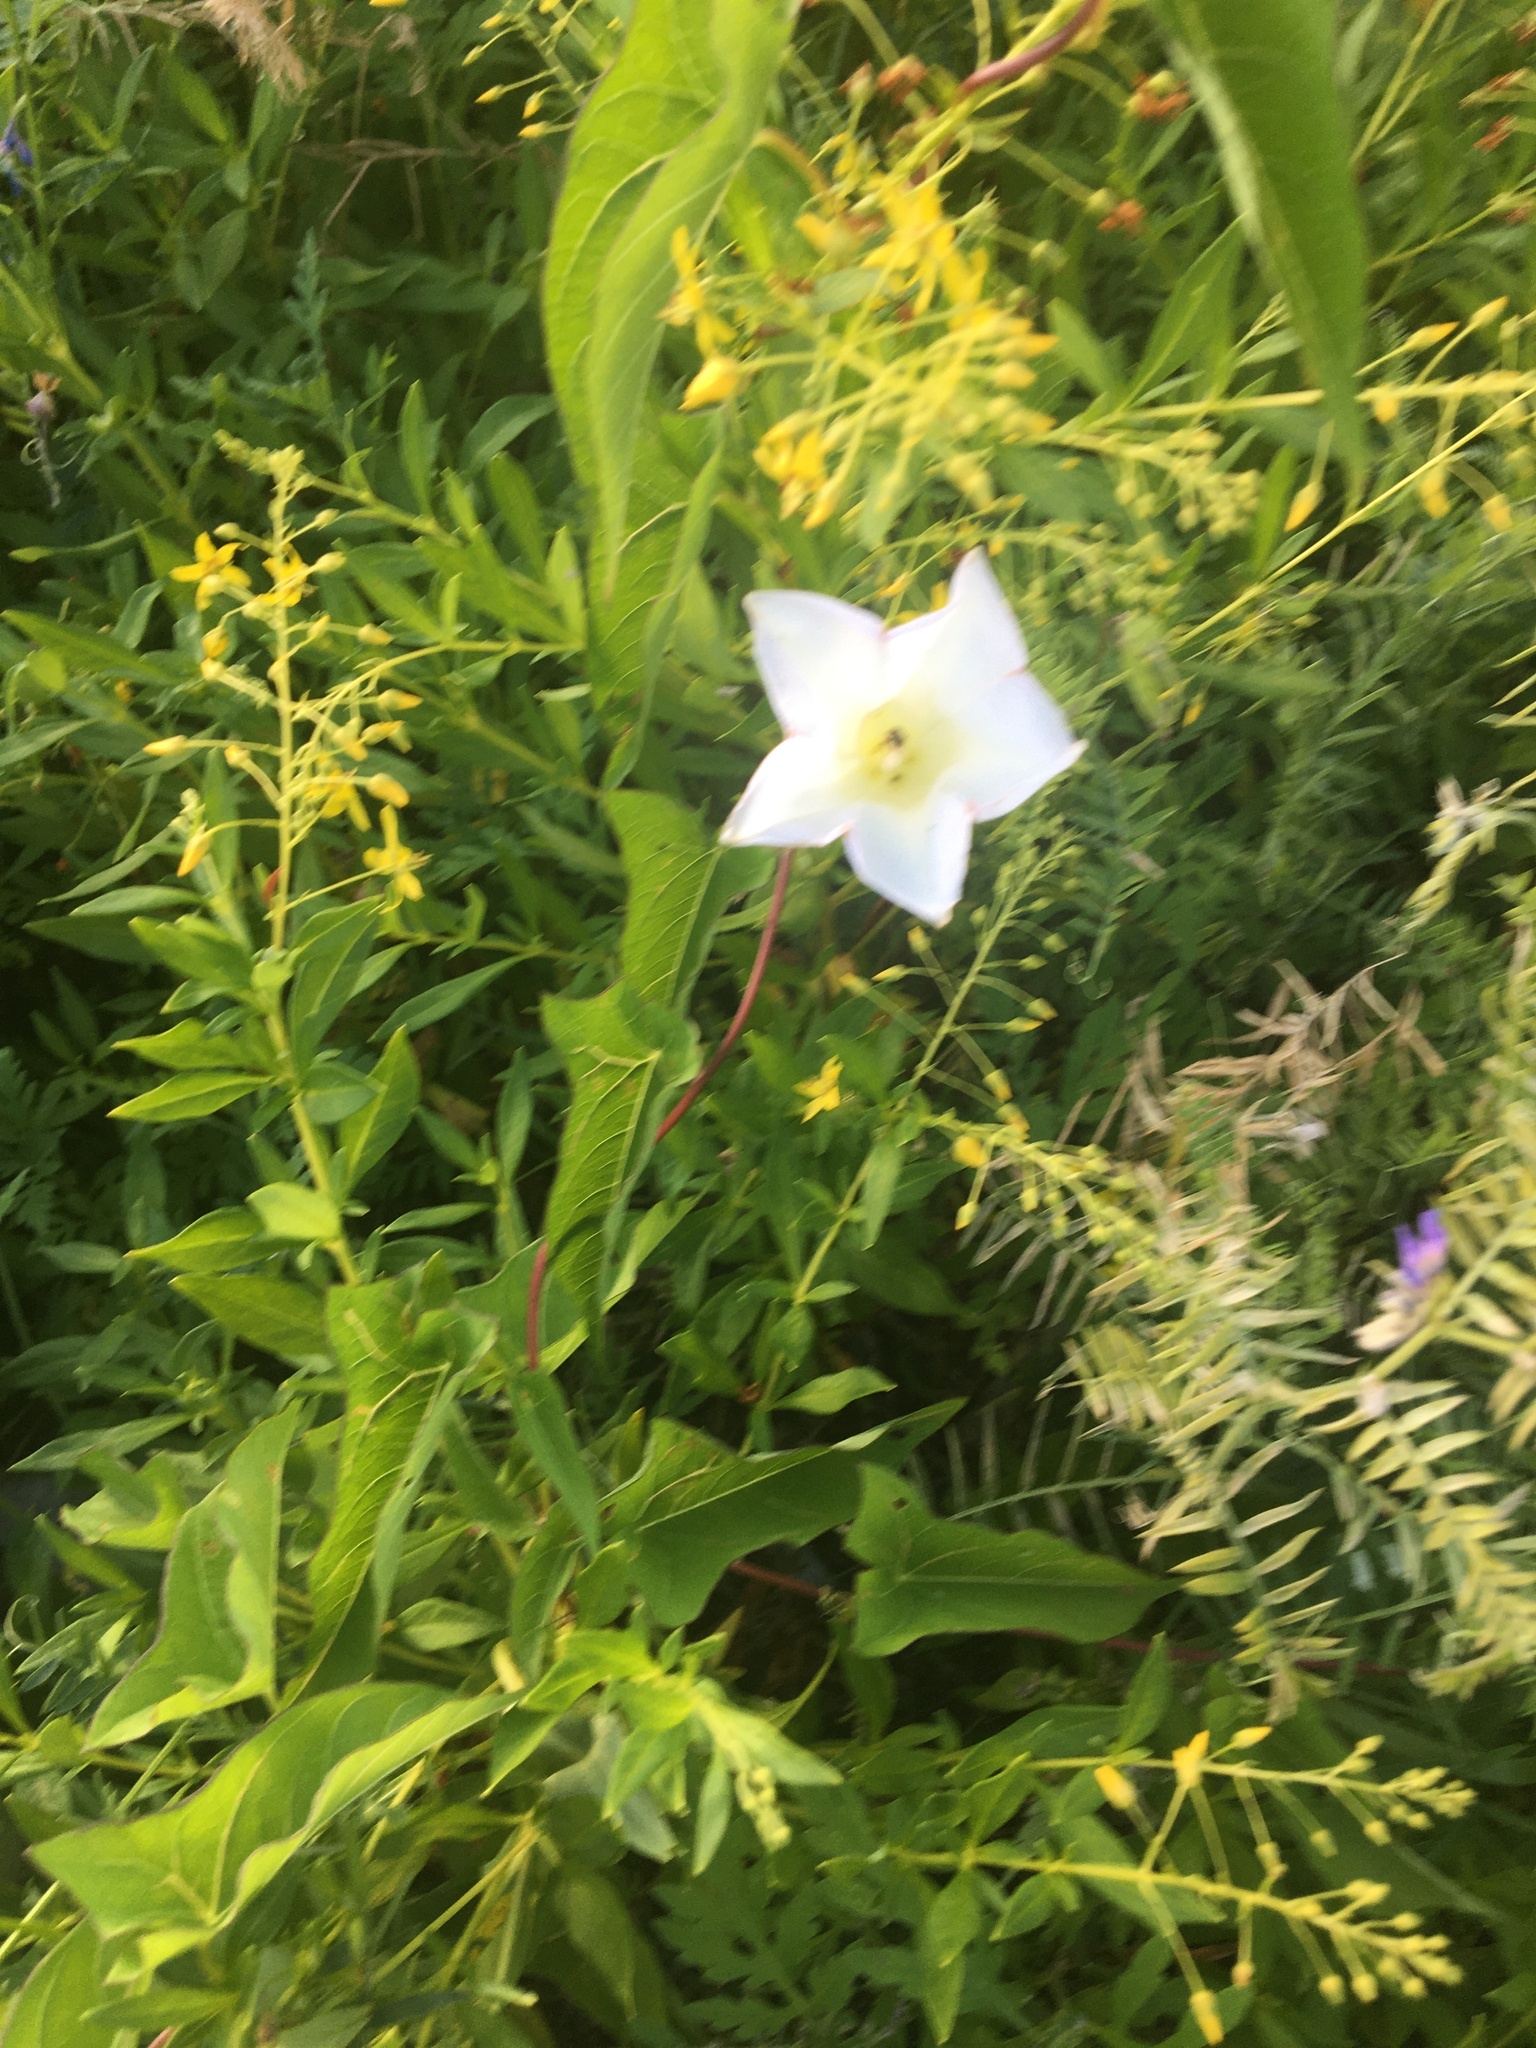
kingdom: Plantae
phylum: Tracheophyta
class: Magnoliopsida
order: Ericales
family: Primulaceae
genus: Lysimachia
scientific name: Lysimachia terrestris
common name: Lake loosestrife
